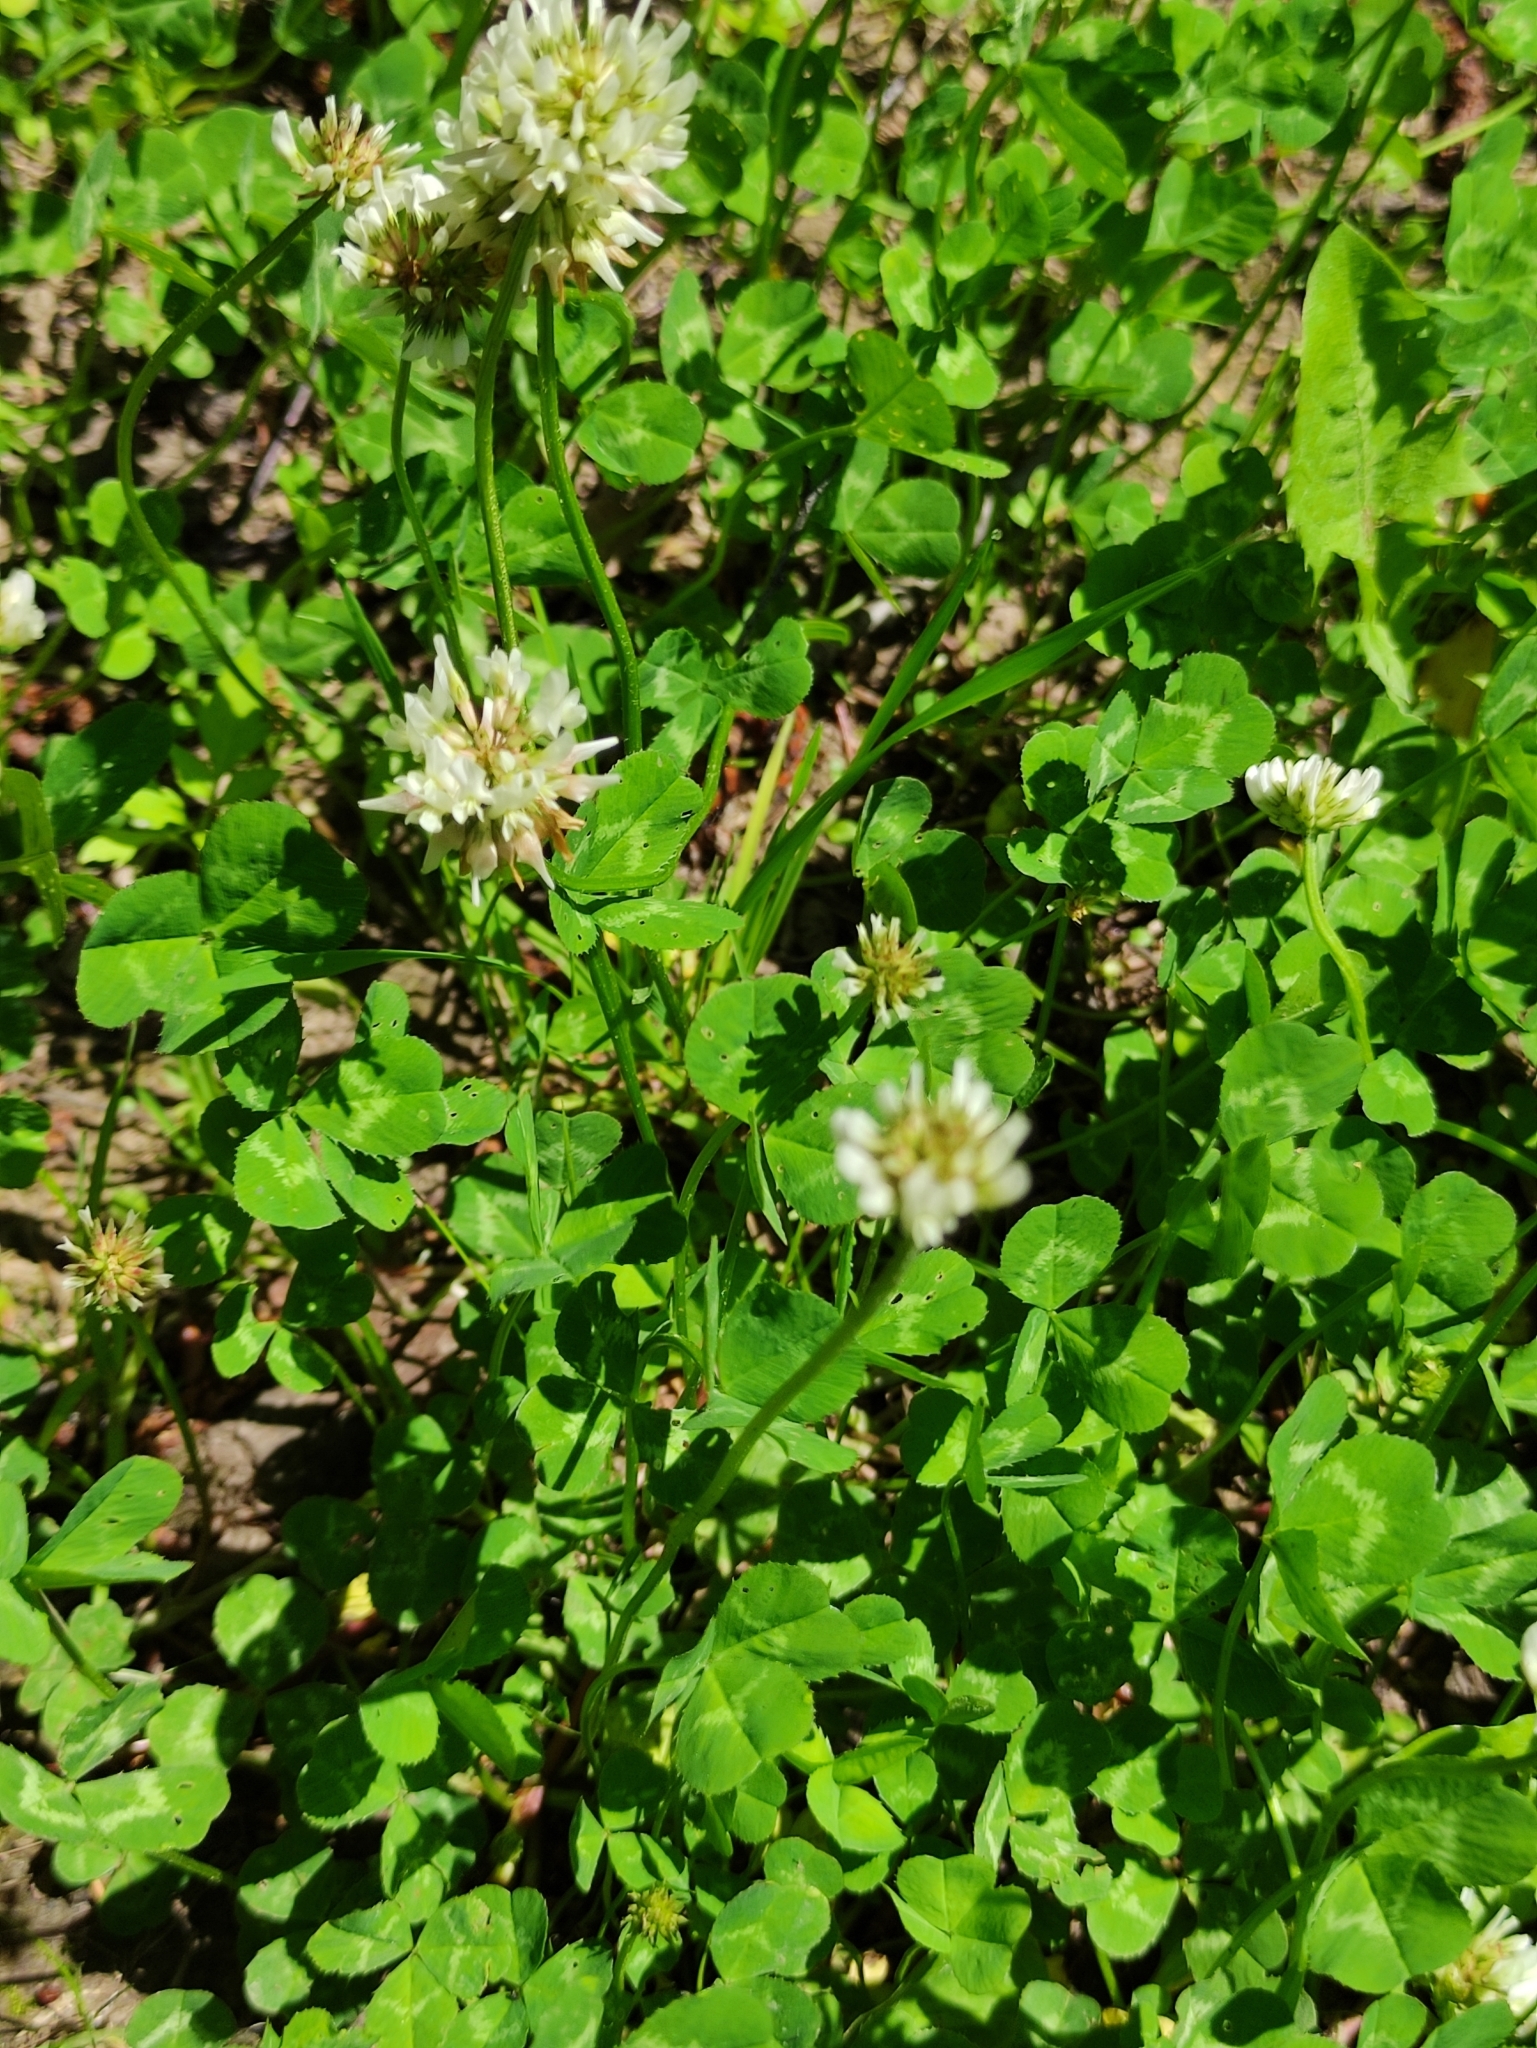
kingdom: Plantae
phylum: Tracheophyta
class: Magnoliopsida
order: Fabales
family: Fabaceae
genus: Trifolium
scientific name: Trifolium repens
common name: White clover
